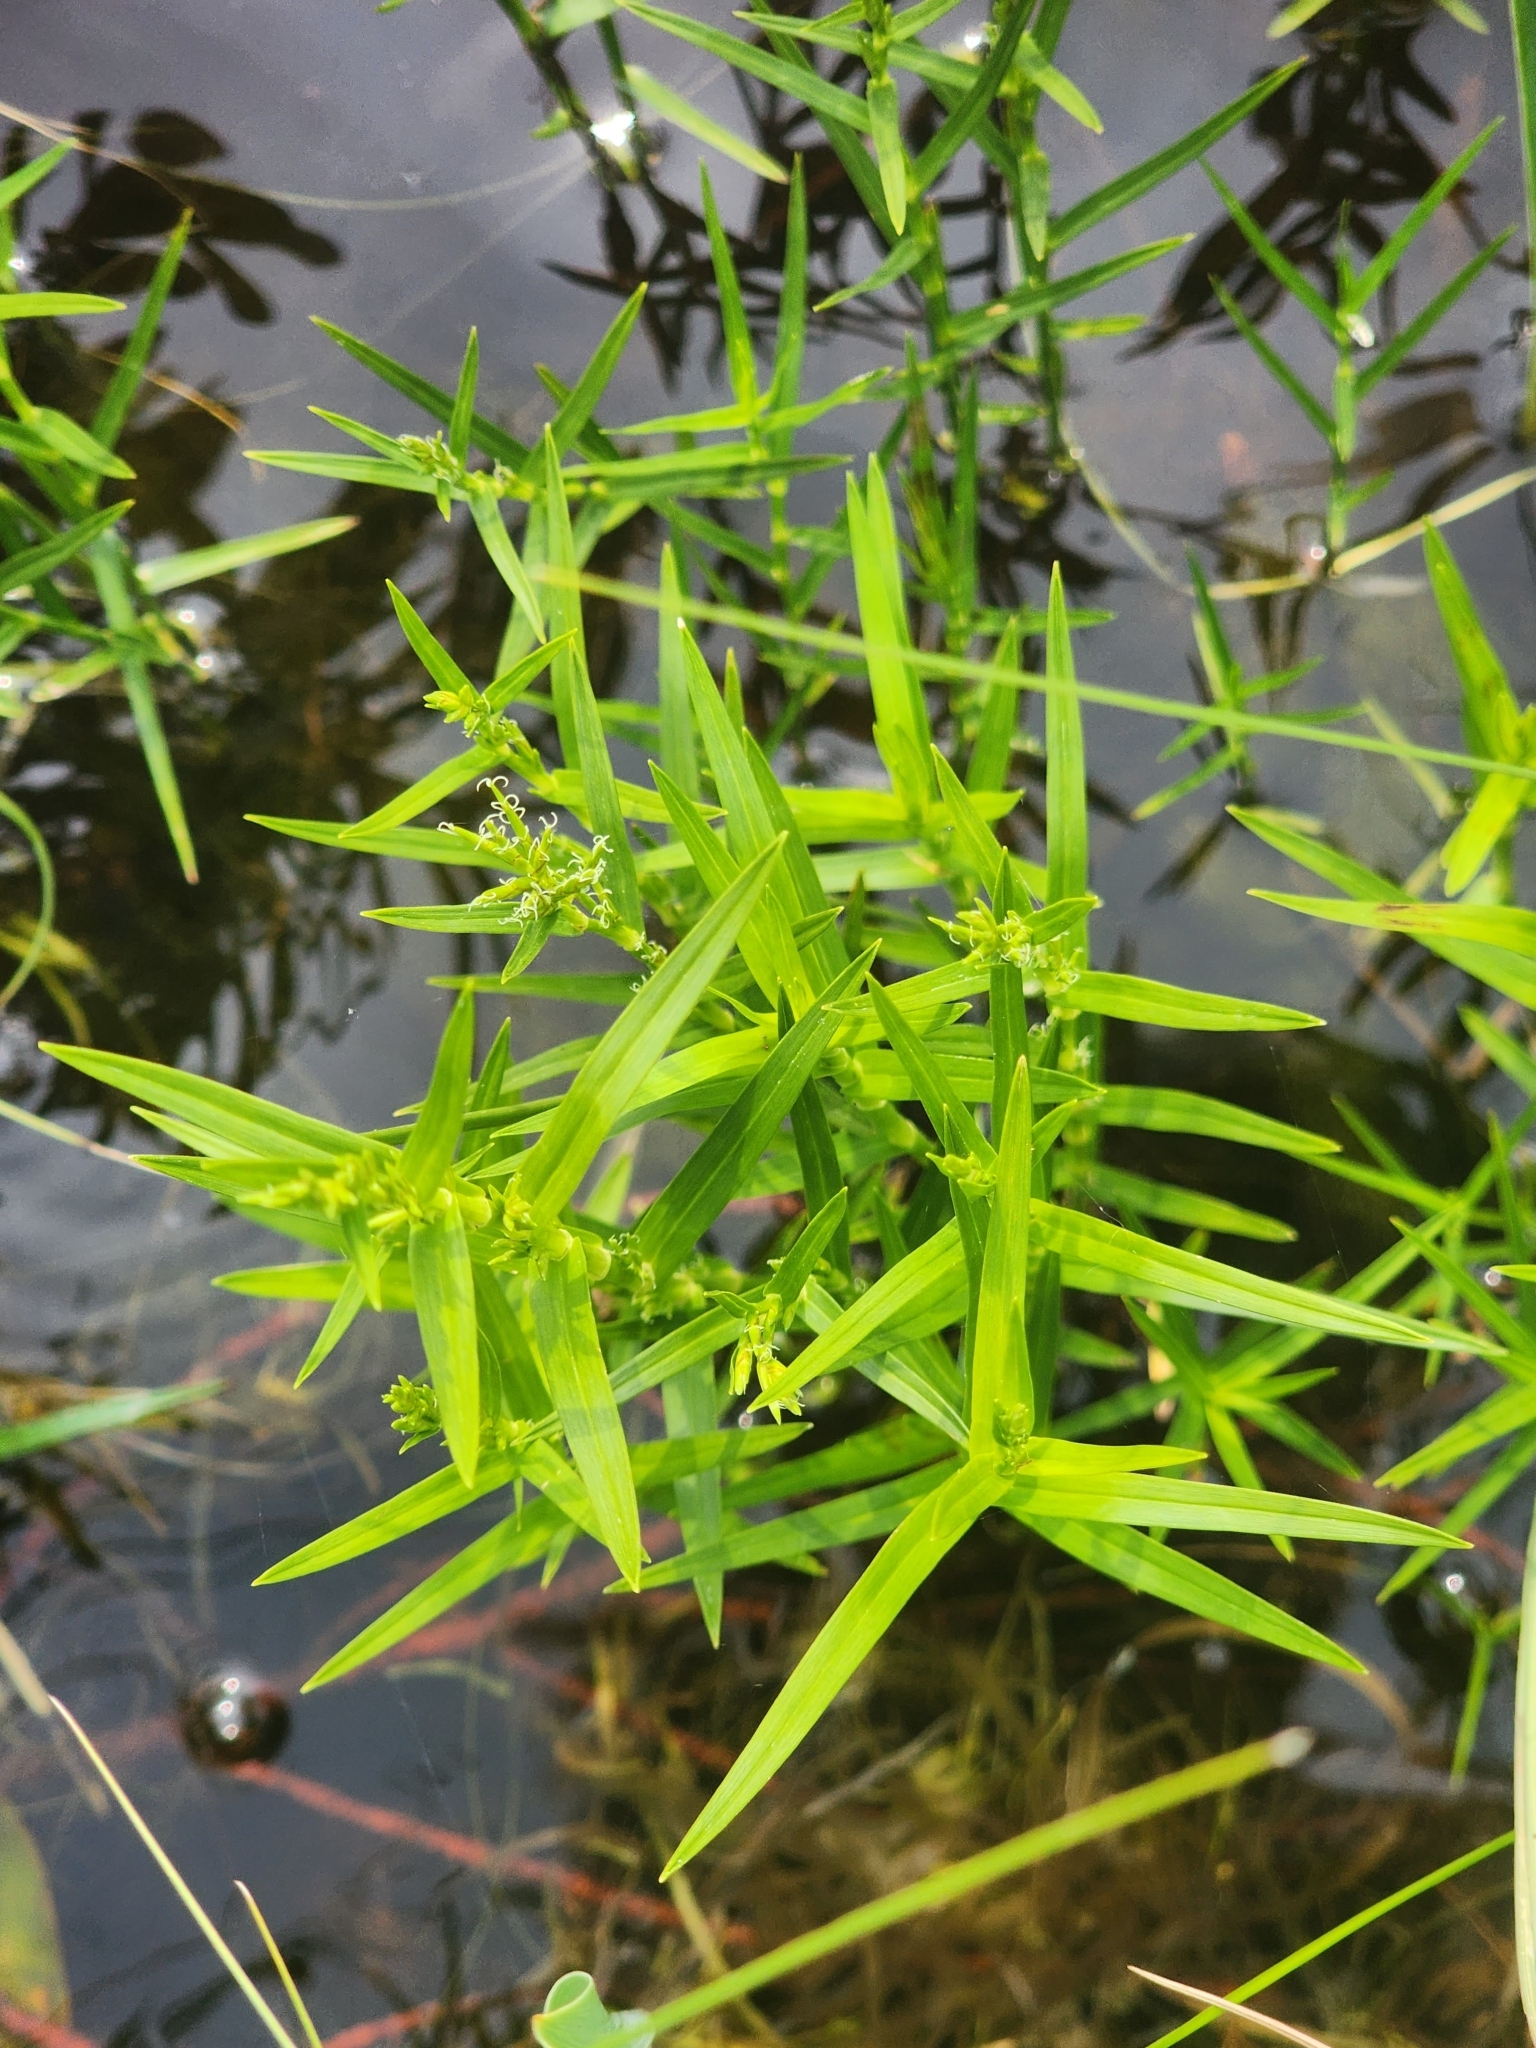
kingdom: Plantae
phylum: Tracheophyta
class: Liliopsida
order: Poales
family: Cyperaceae
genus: Dulichium
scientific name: Dulichium arundinaceum
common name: Three-way sedge
